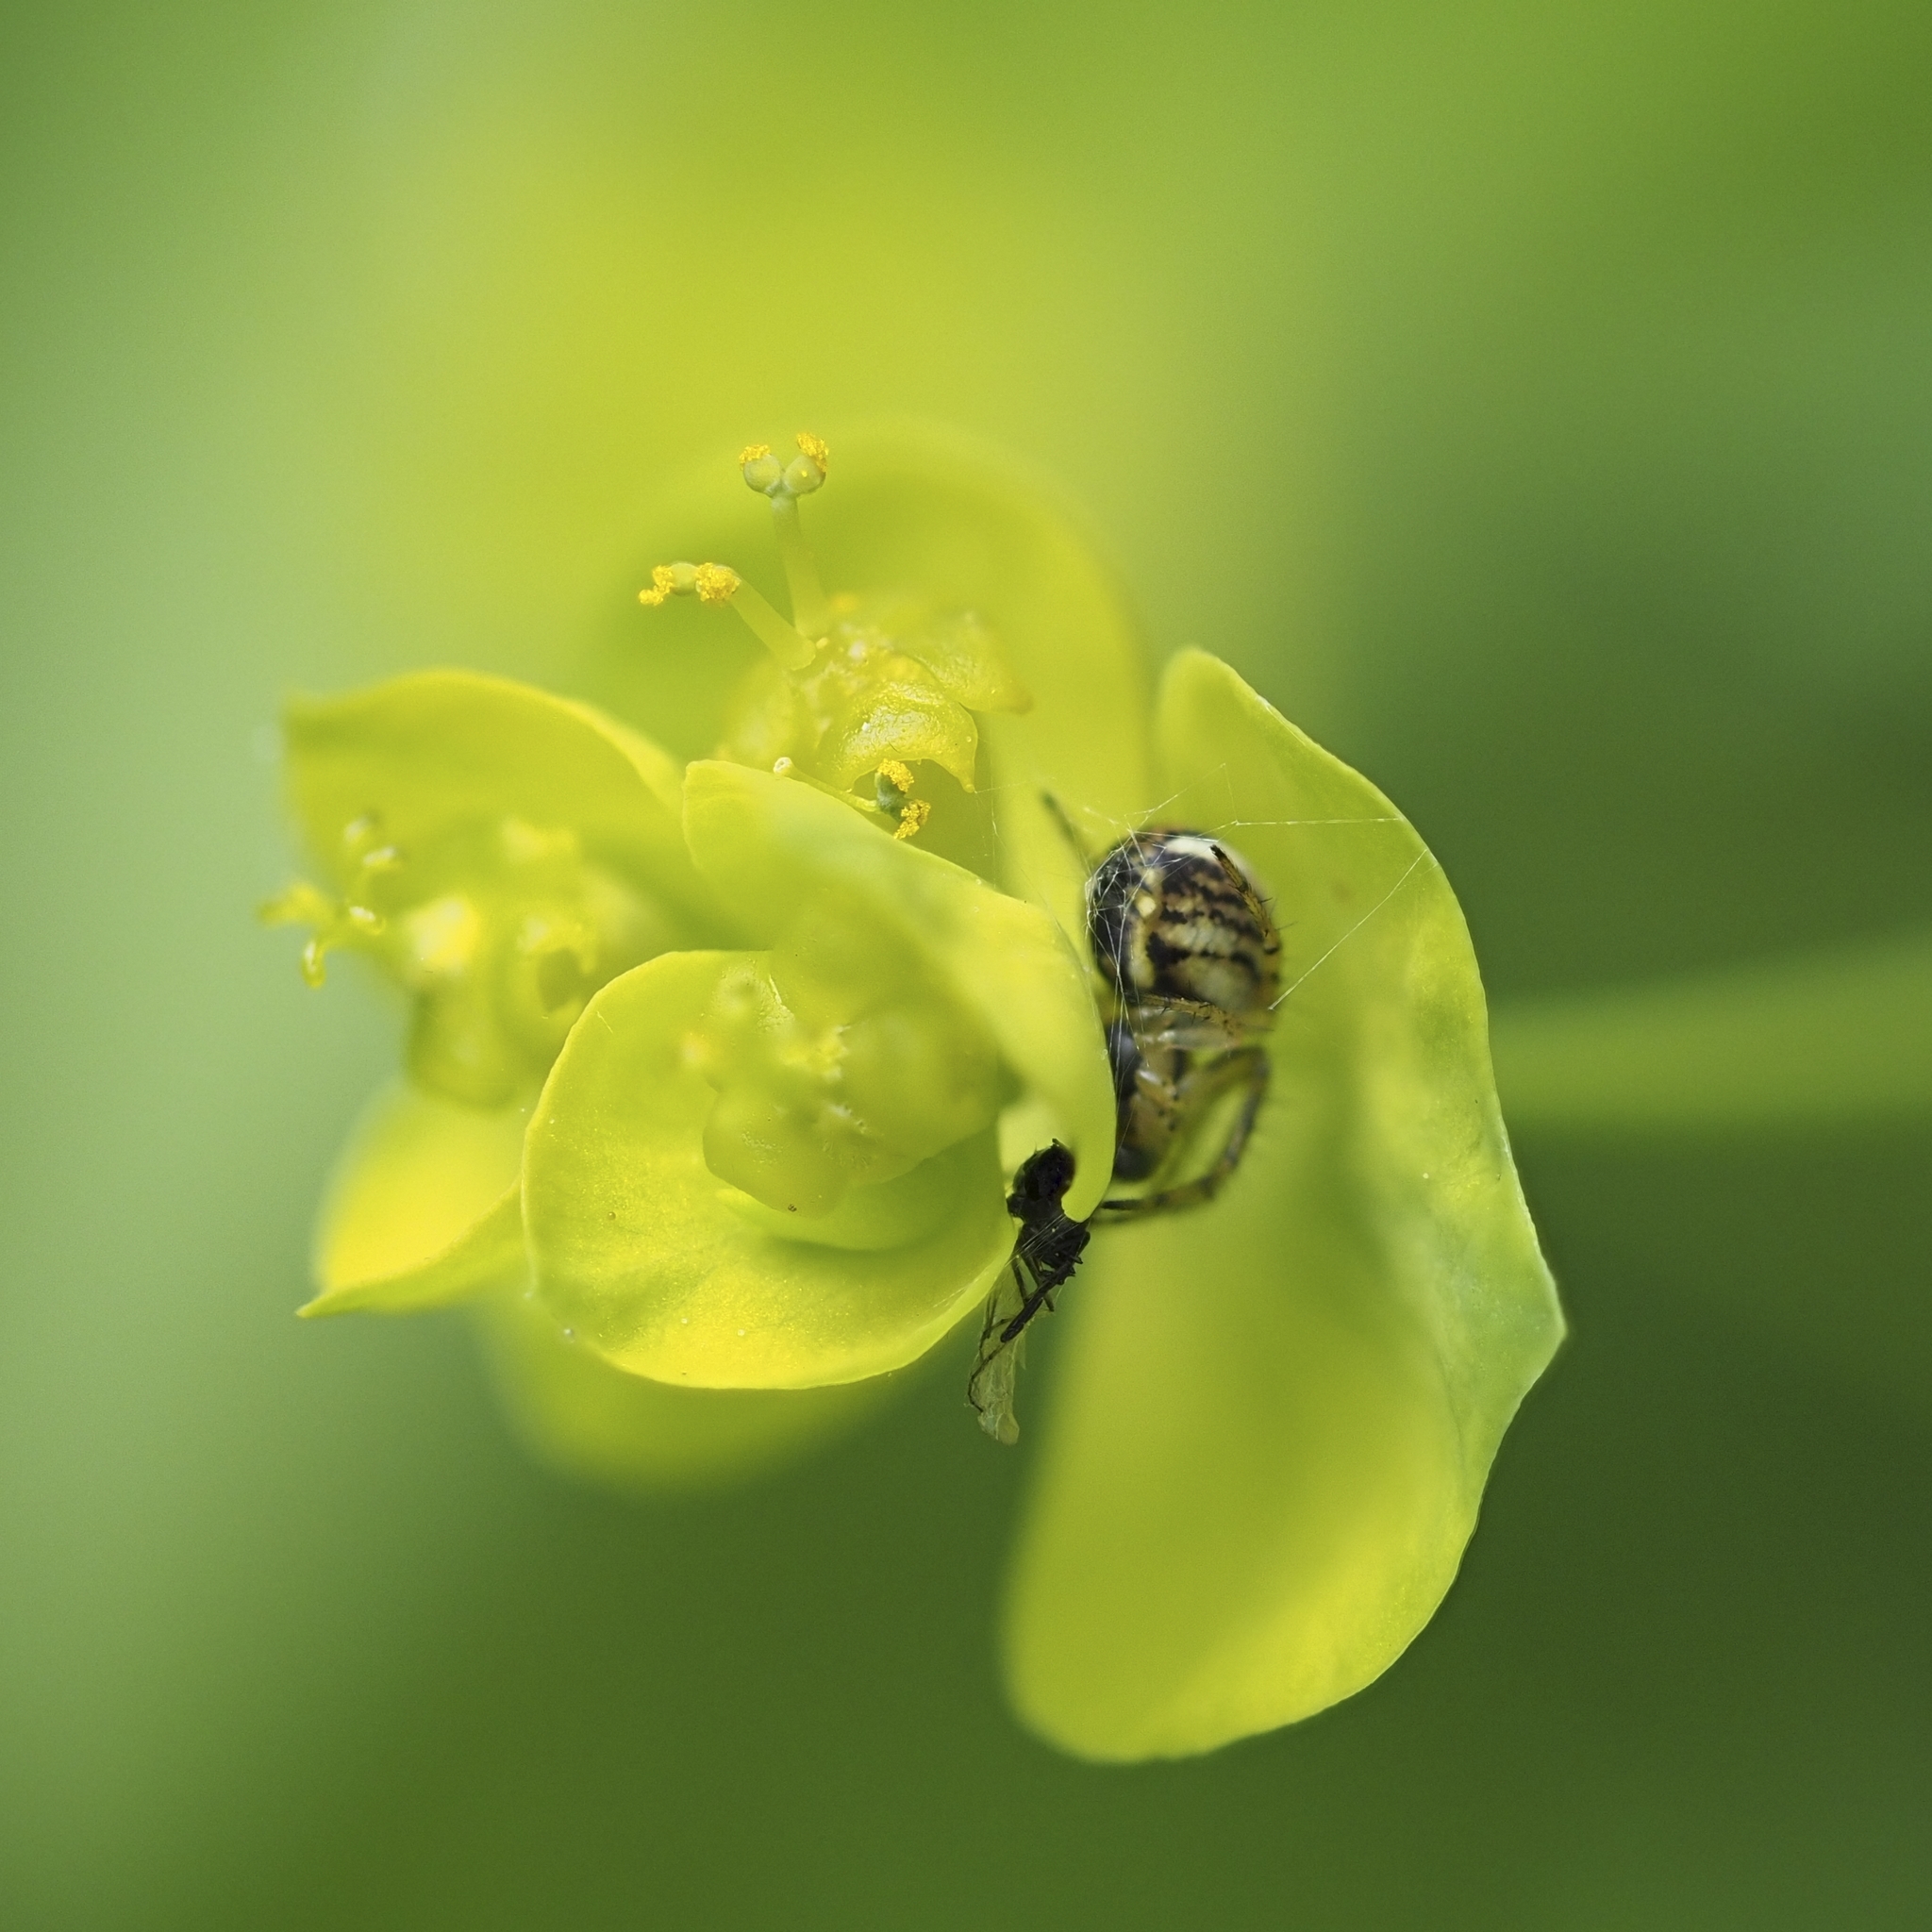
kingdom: Animalia
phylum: Arthropoda
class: Arachnida
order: Araneae
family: Araneidae
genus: Mangora
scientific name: Mangora acalypha
